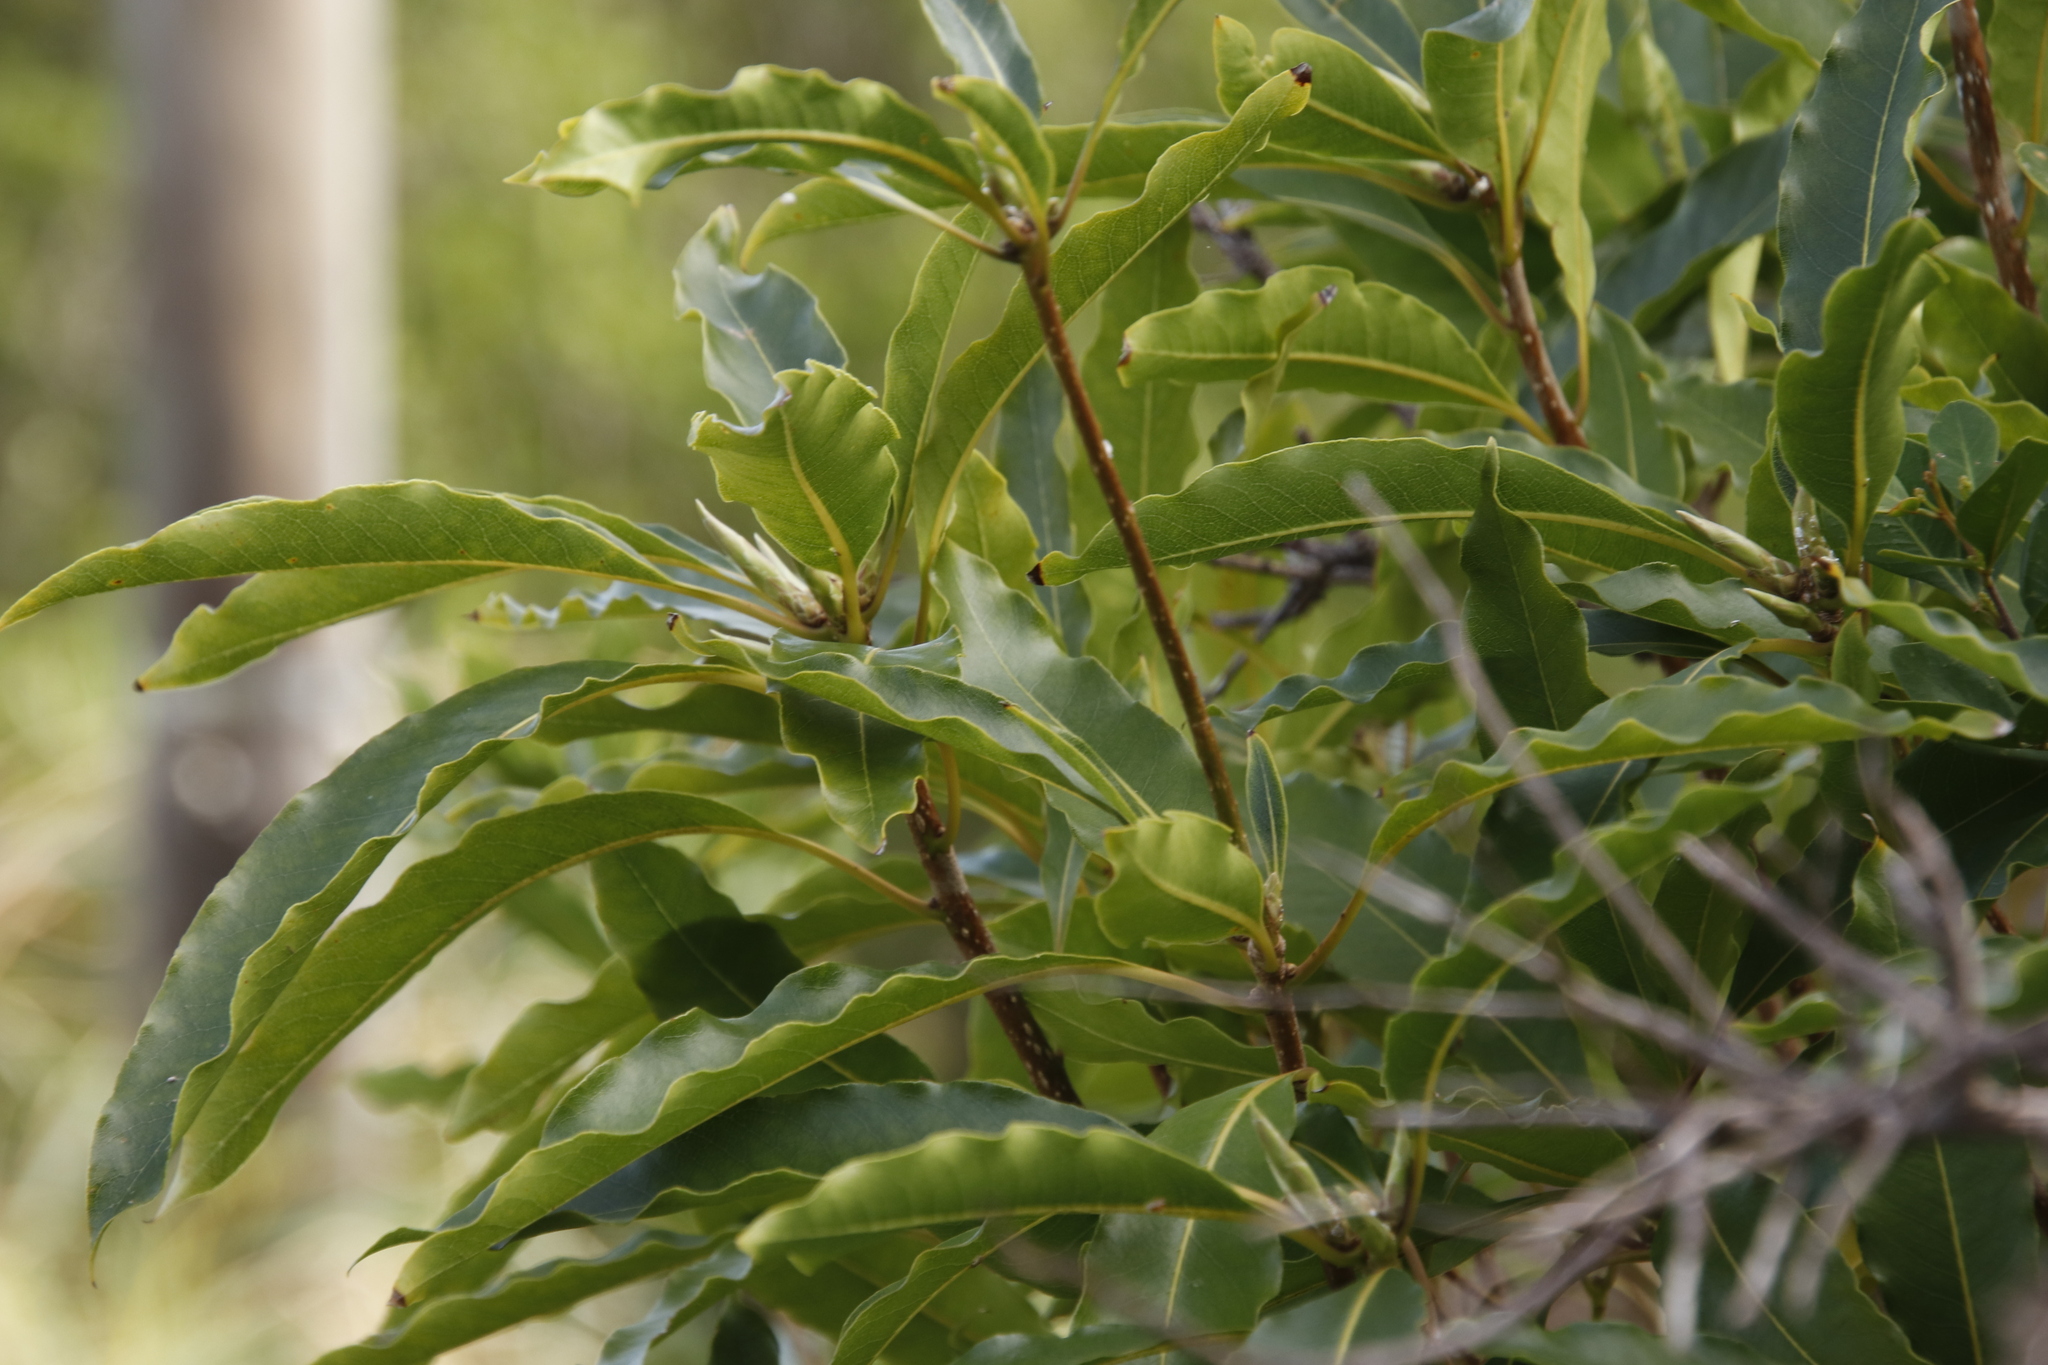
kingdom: Plantae
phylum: Tracheophyta
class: Magnoliopsida
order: Apiales
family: Pittosporaceae
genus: Pittosporum
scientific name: Pittosporum undulatum
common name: Australian cheesewood
